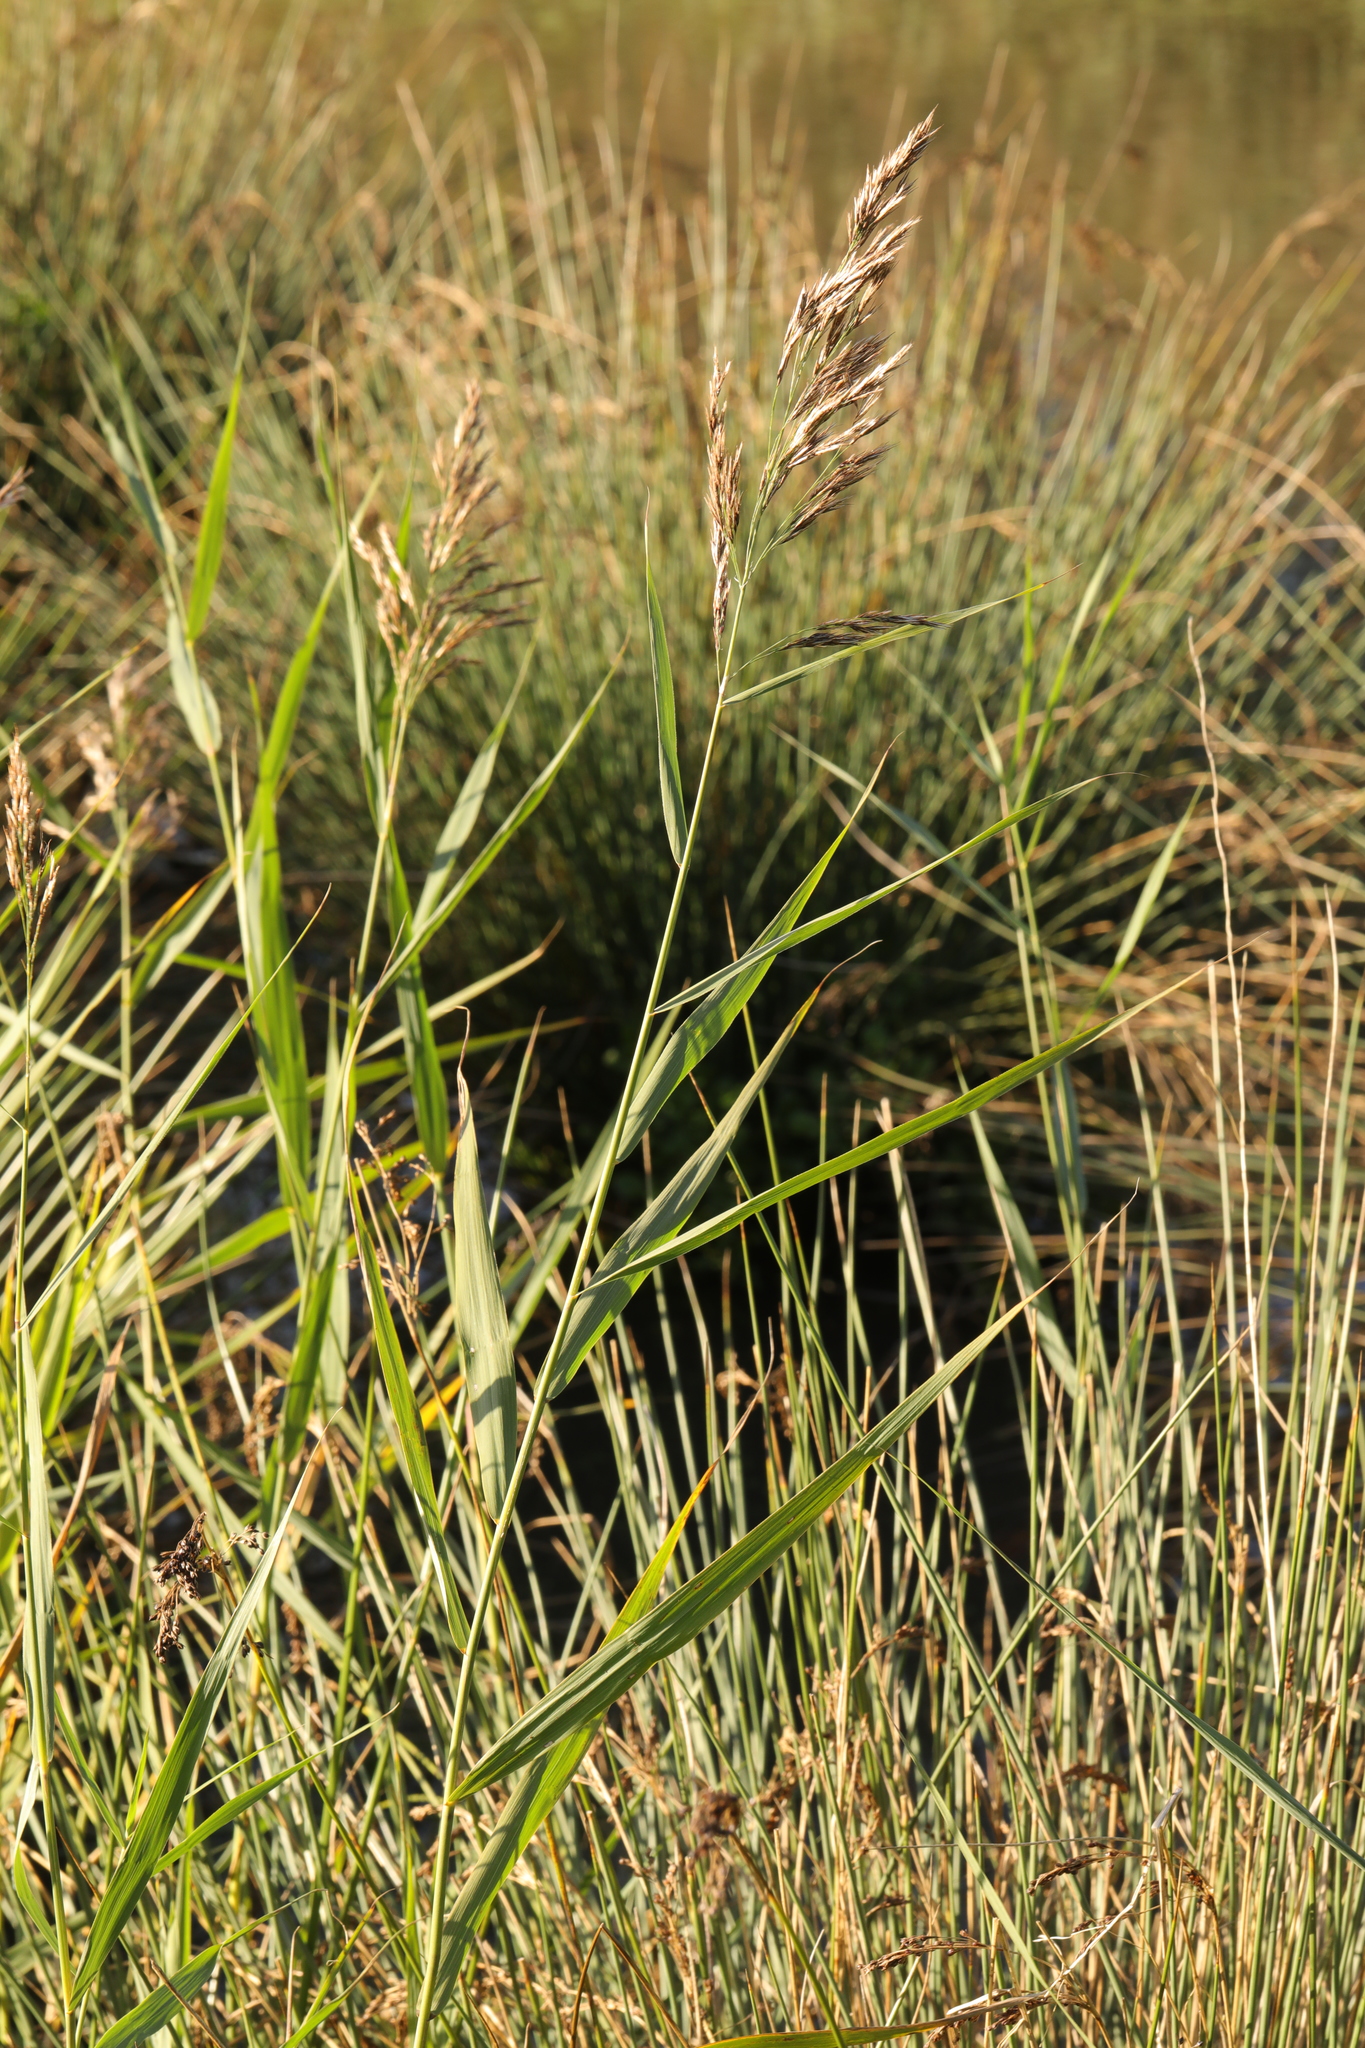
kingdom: Plantae
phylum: Tracheophyta
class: Liliopsida
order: Poales
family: Poaceae
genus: Phragmites
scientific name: Phragmites australis
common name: Common reed
